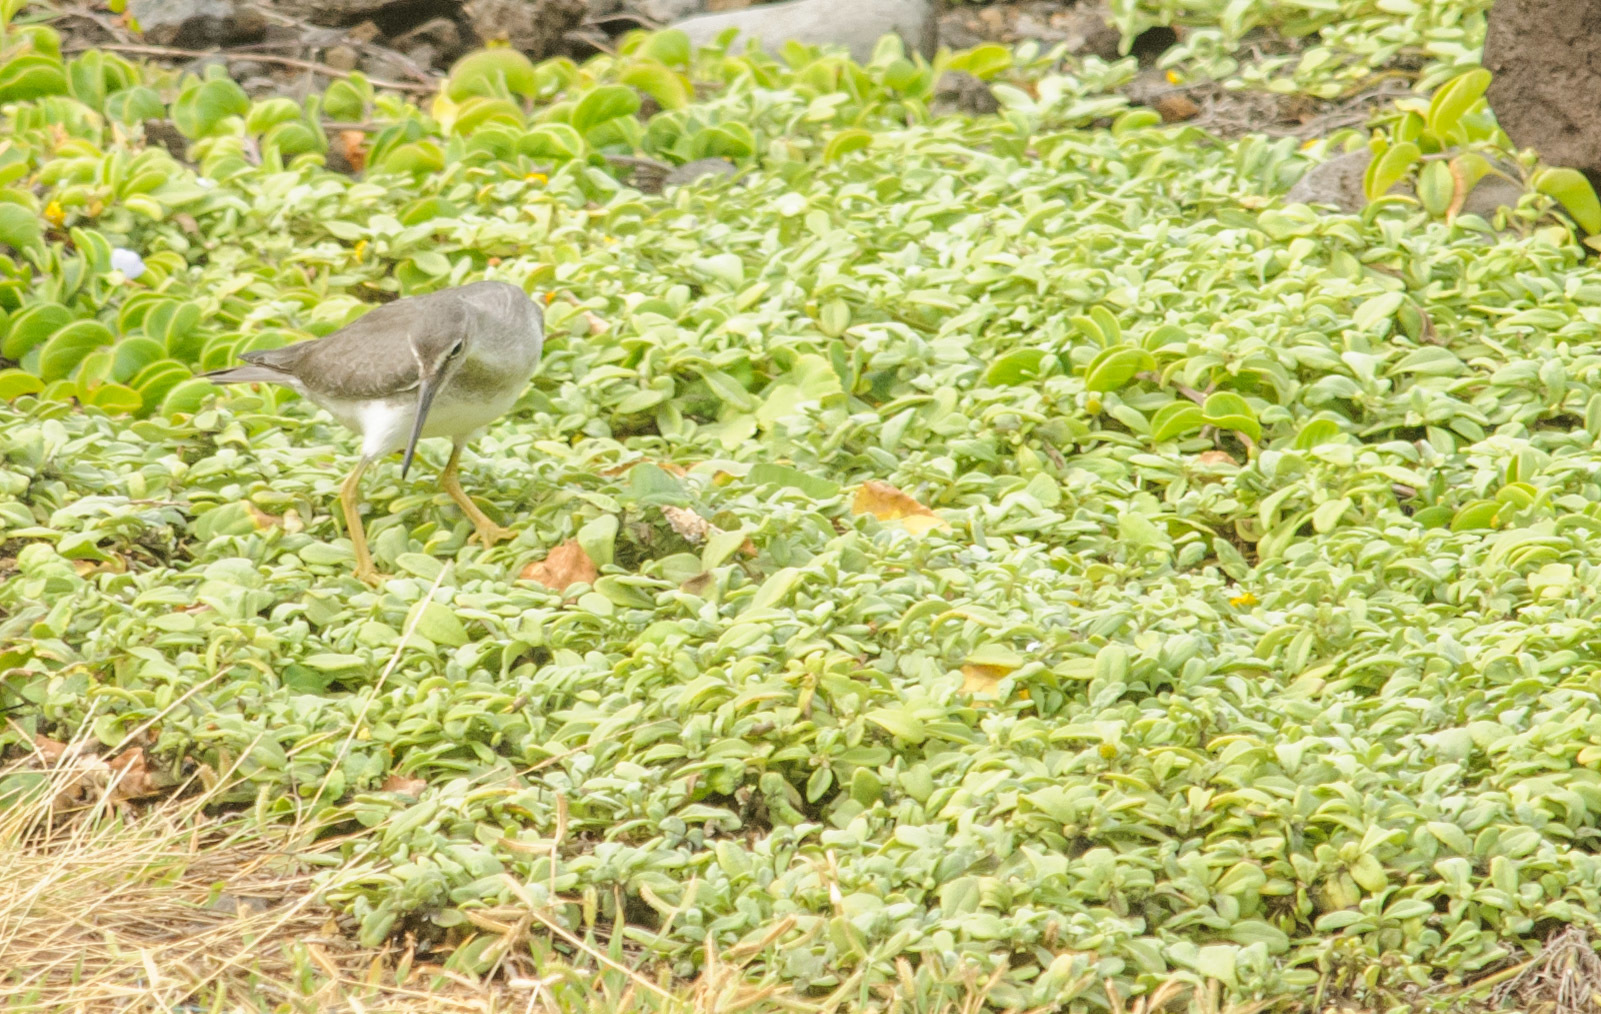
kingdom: Animalia
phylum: Chordata
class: Aves
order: Charadriiformes
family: Scolopacidae
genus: Tringa
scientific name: Tringa incana
